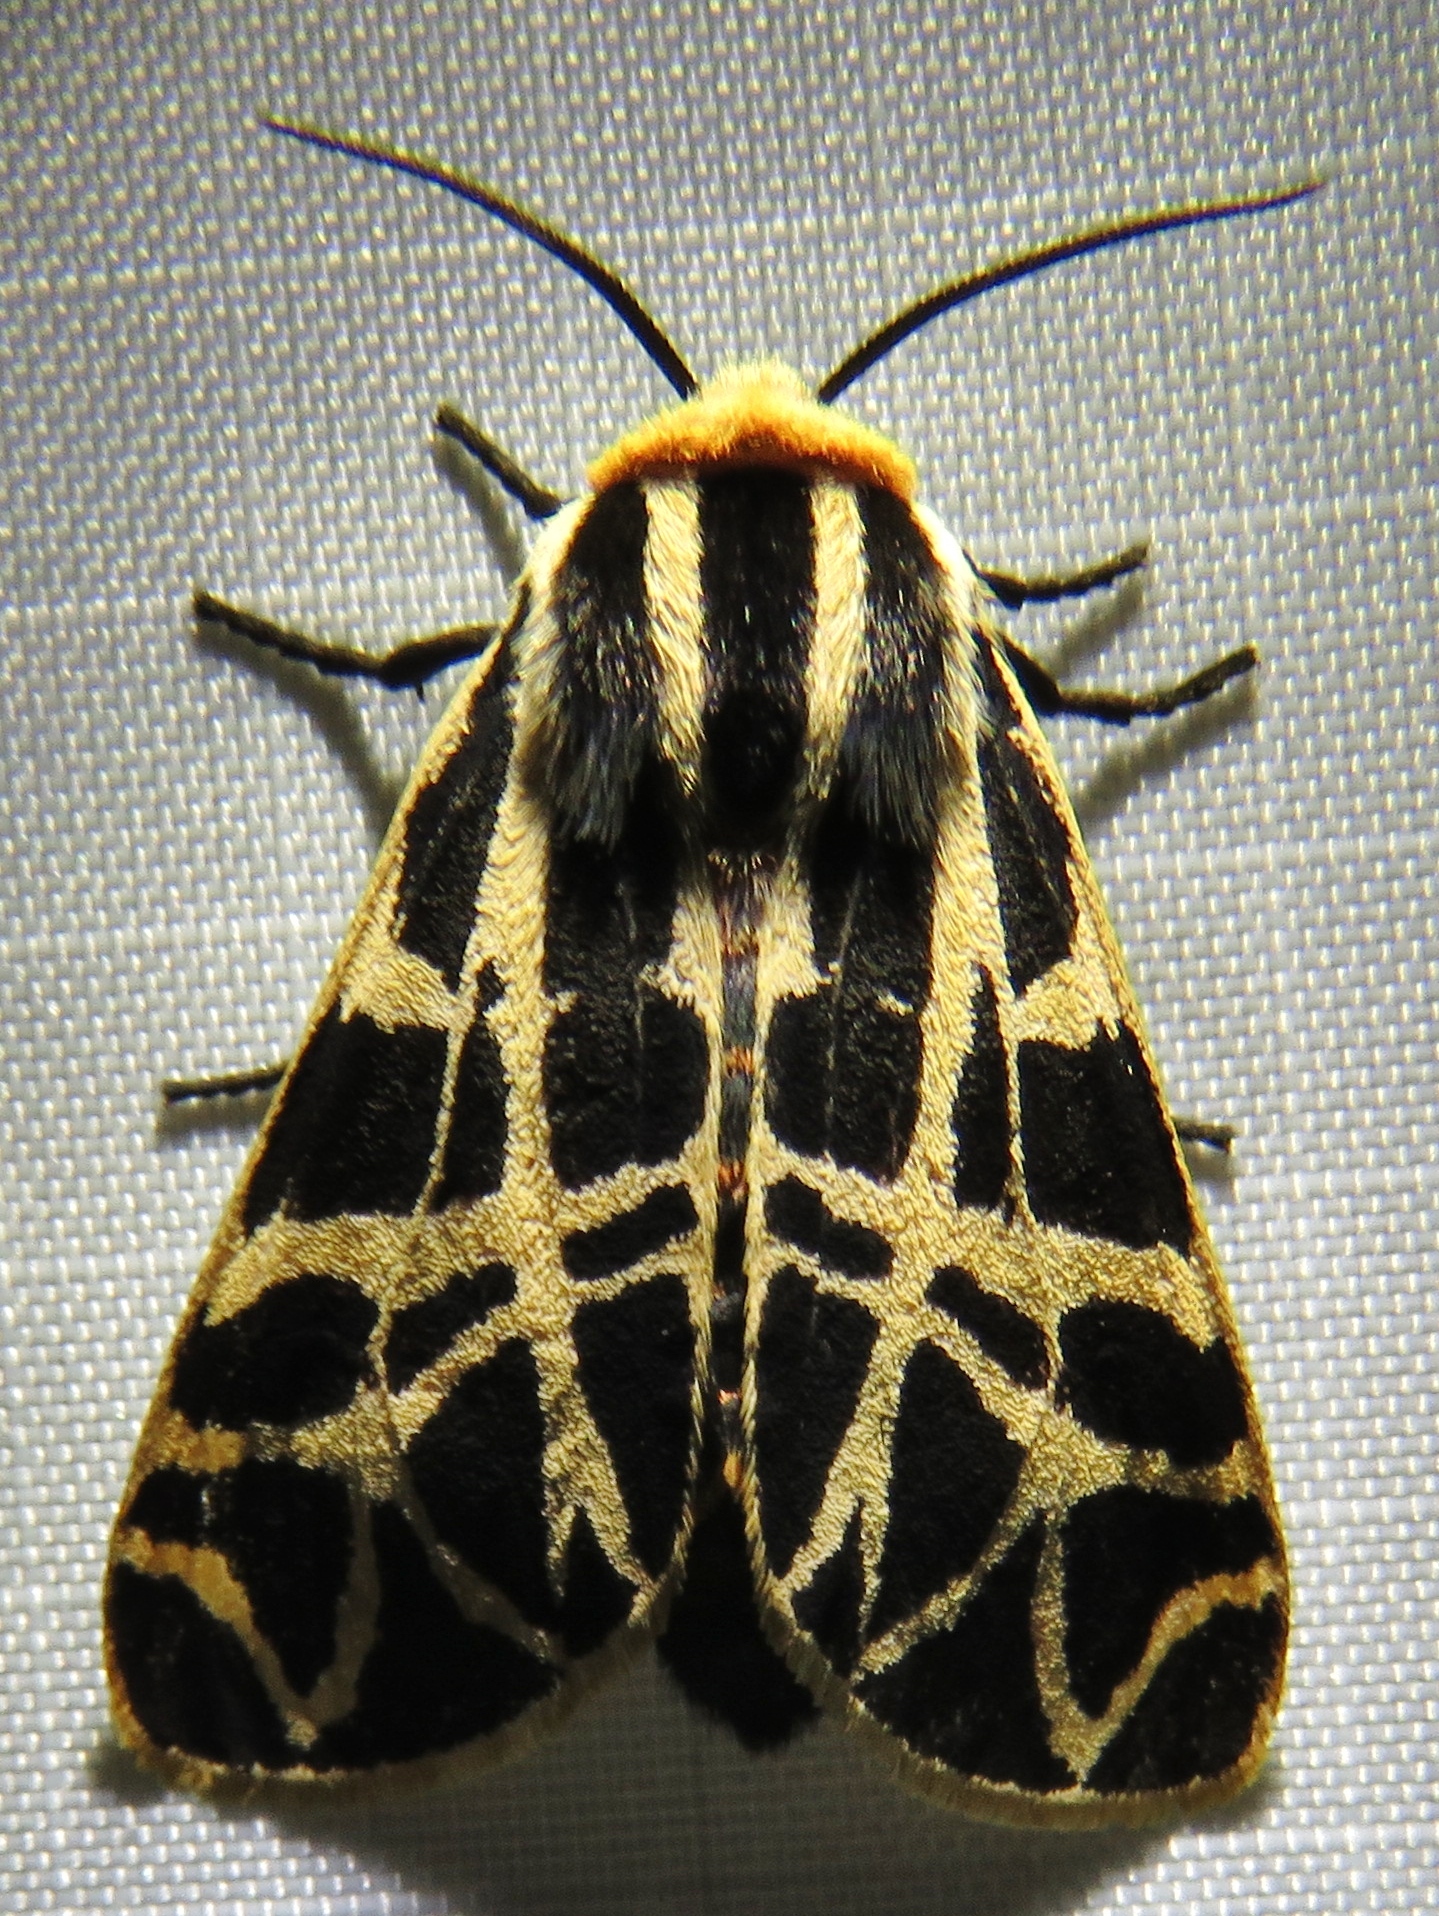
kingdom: Animalia
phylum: Arthropoda
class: Insecta
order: Lepidoptera
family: Erebidae
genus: Apantesis
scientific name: Apantesis
